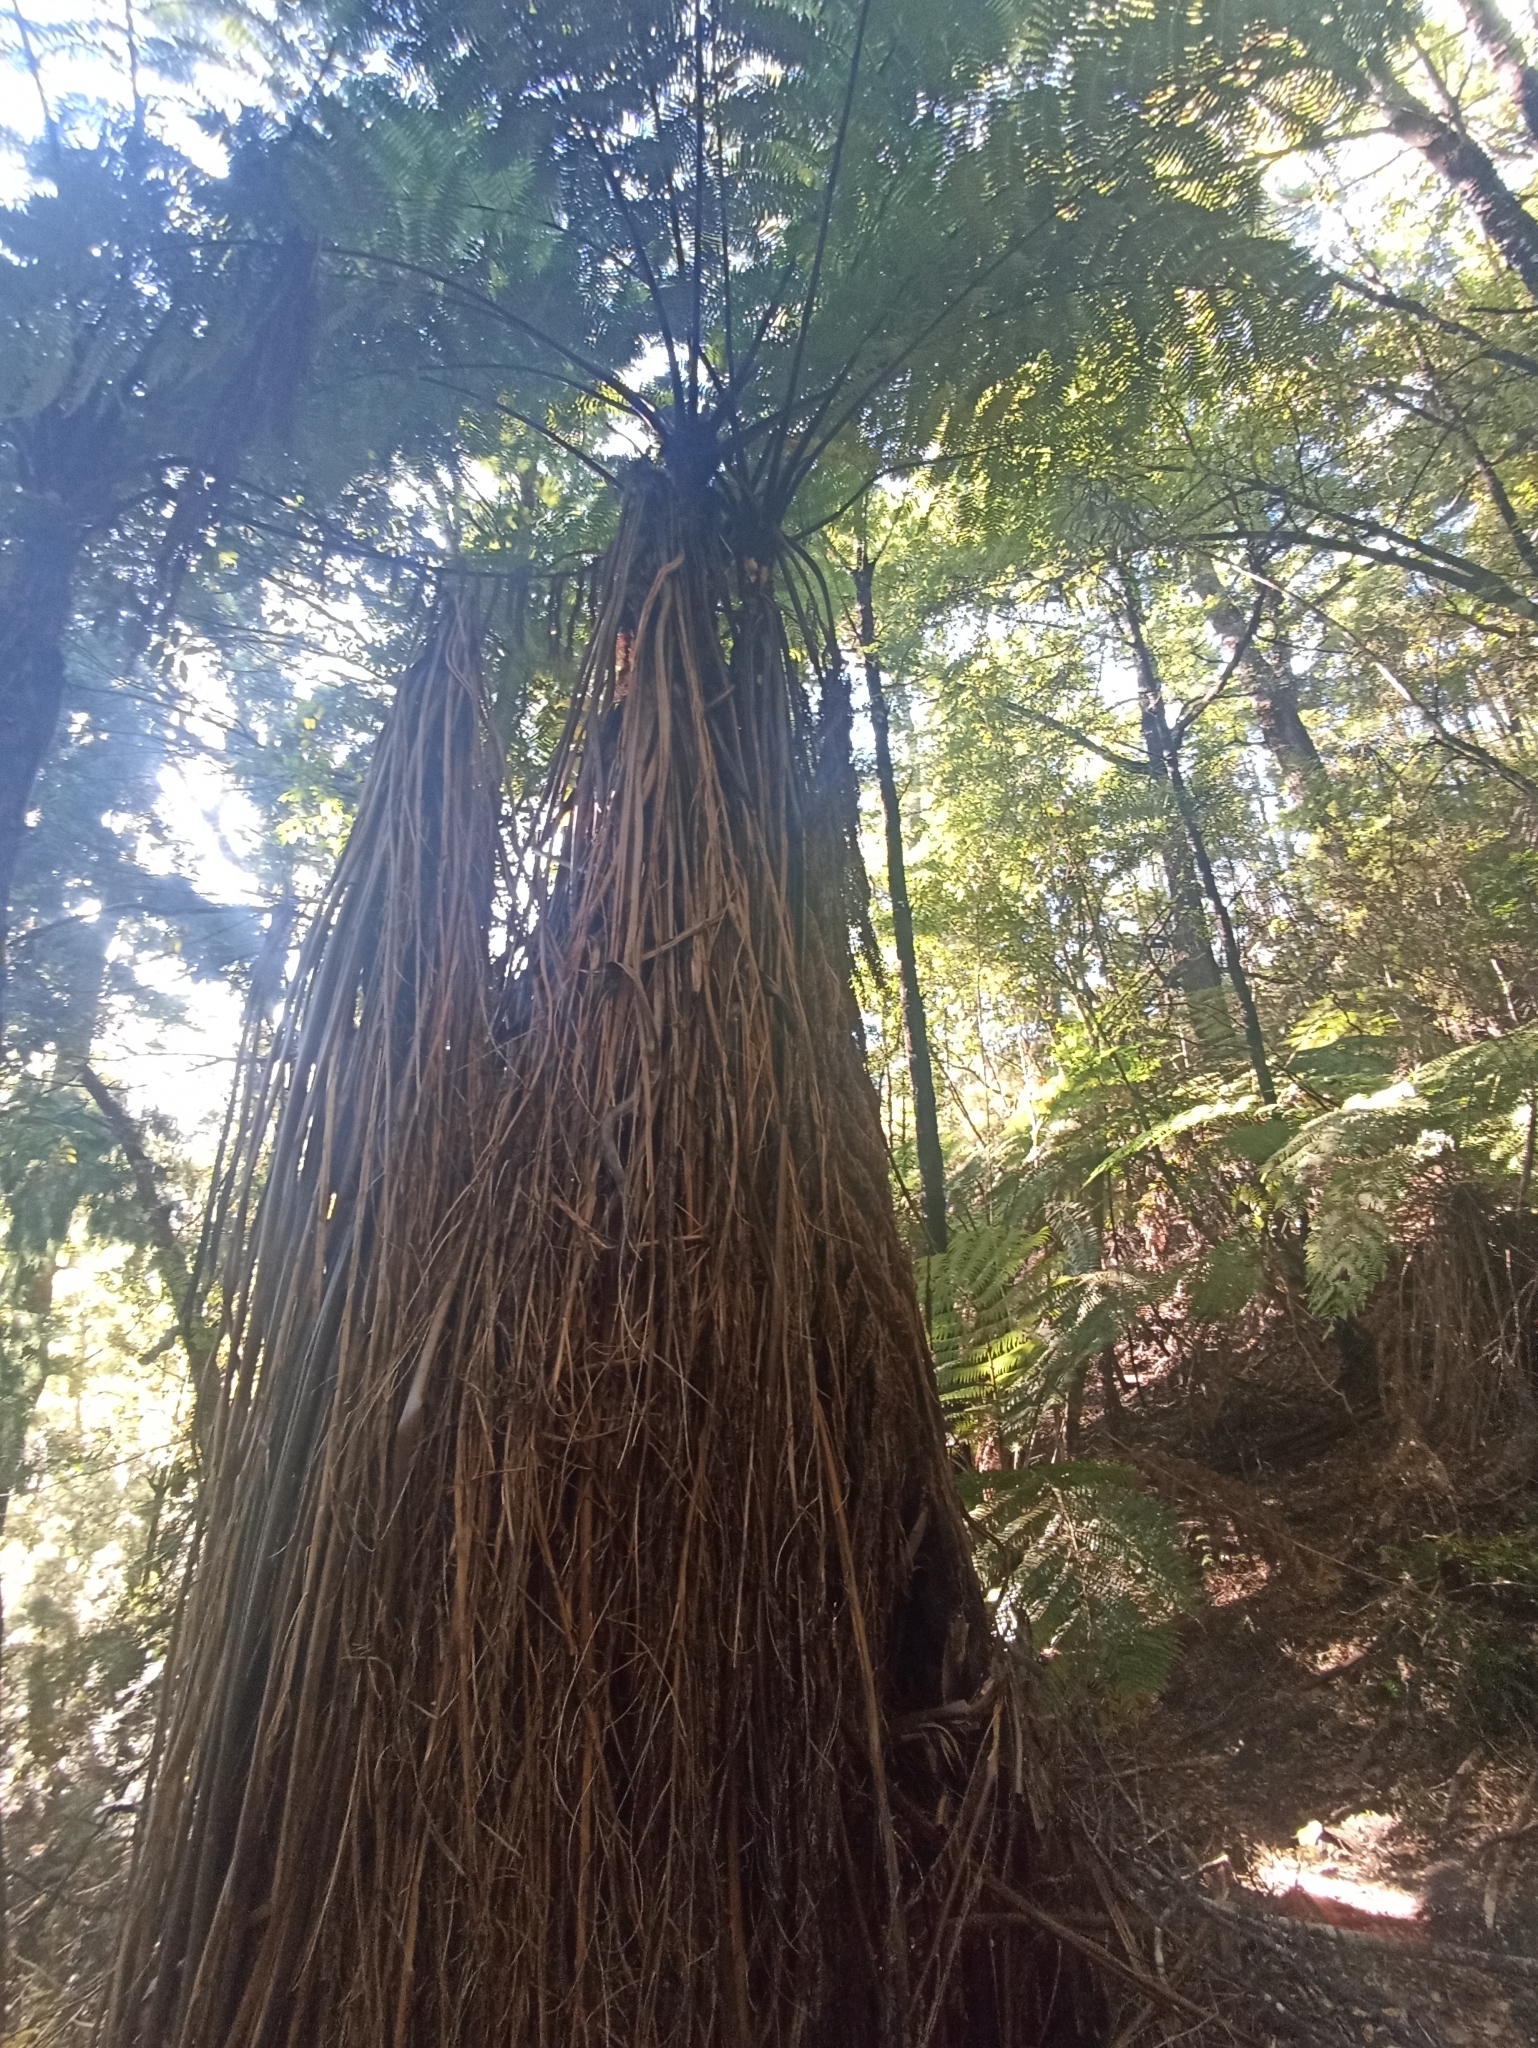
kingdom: Plantae
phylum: Tracheophyta
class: Polypodiopsida
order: Cyatheales
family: Cyatheaceae
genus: Sphaeropteris
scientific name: Sphaeropteris medullaris
